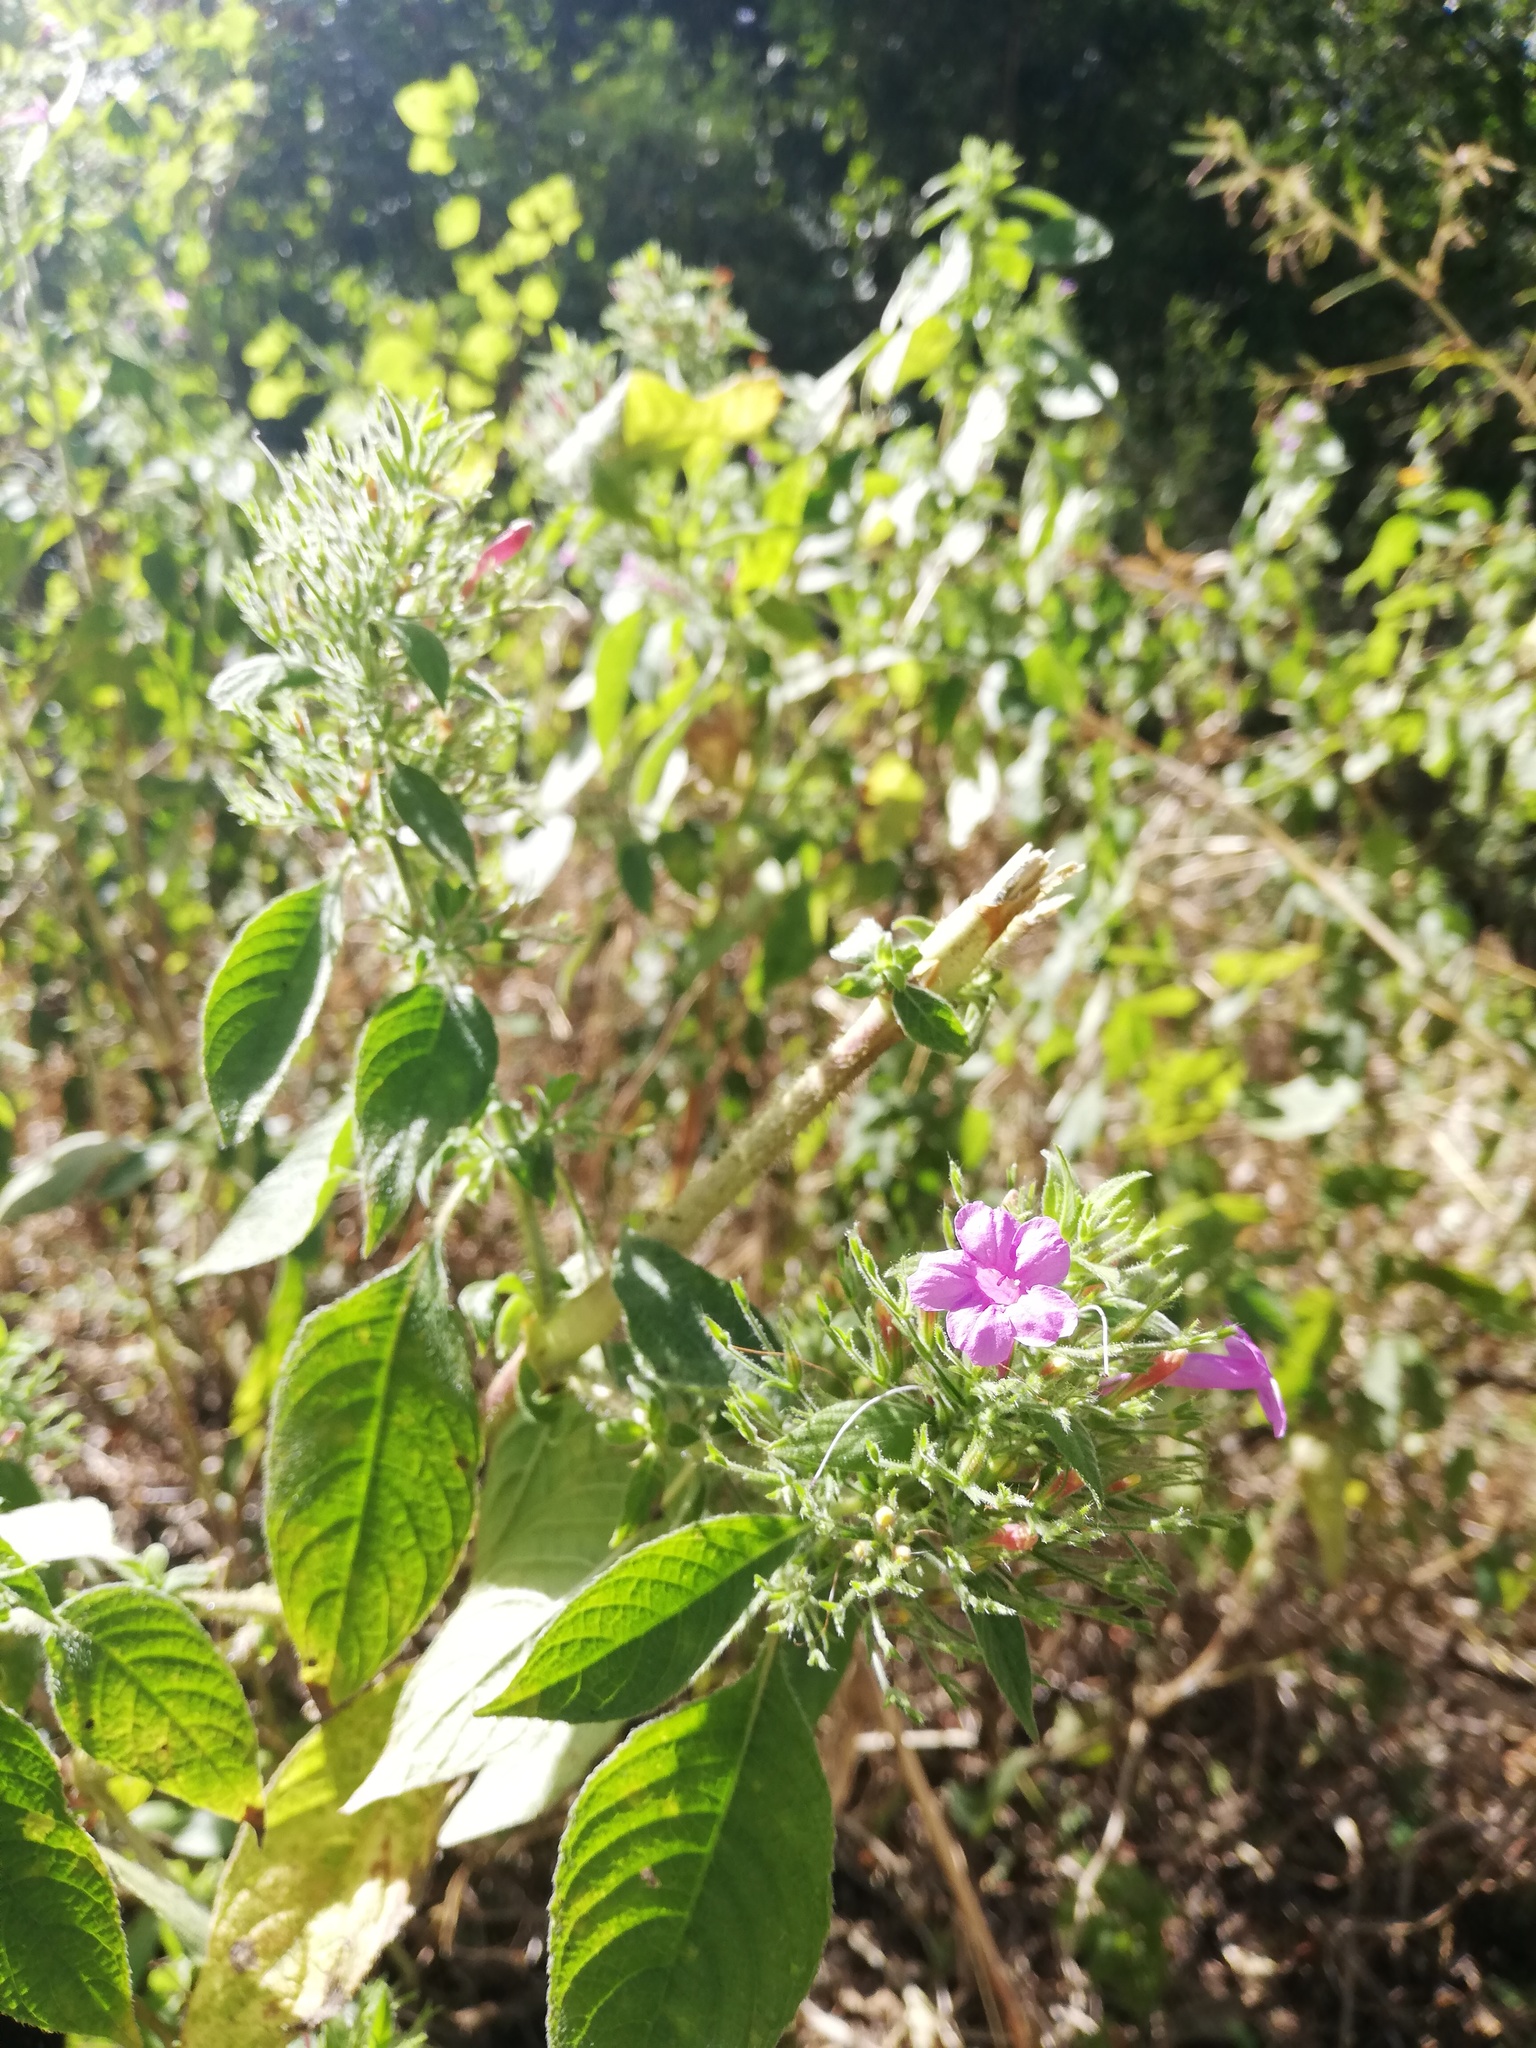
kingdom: Plantae
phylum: Tracheophyta
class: Magnoliopsida
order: Lamiales
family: Acanthaceae
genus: Ruellia
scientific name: Ruellia inundata
